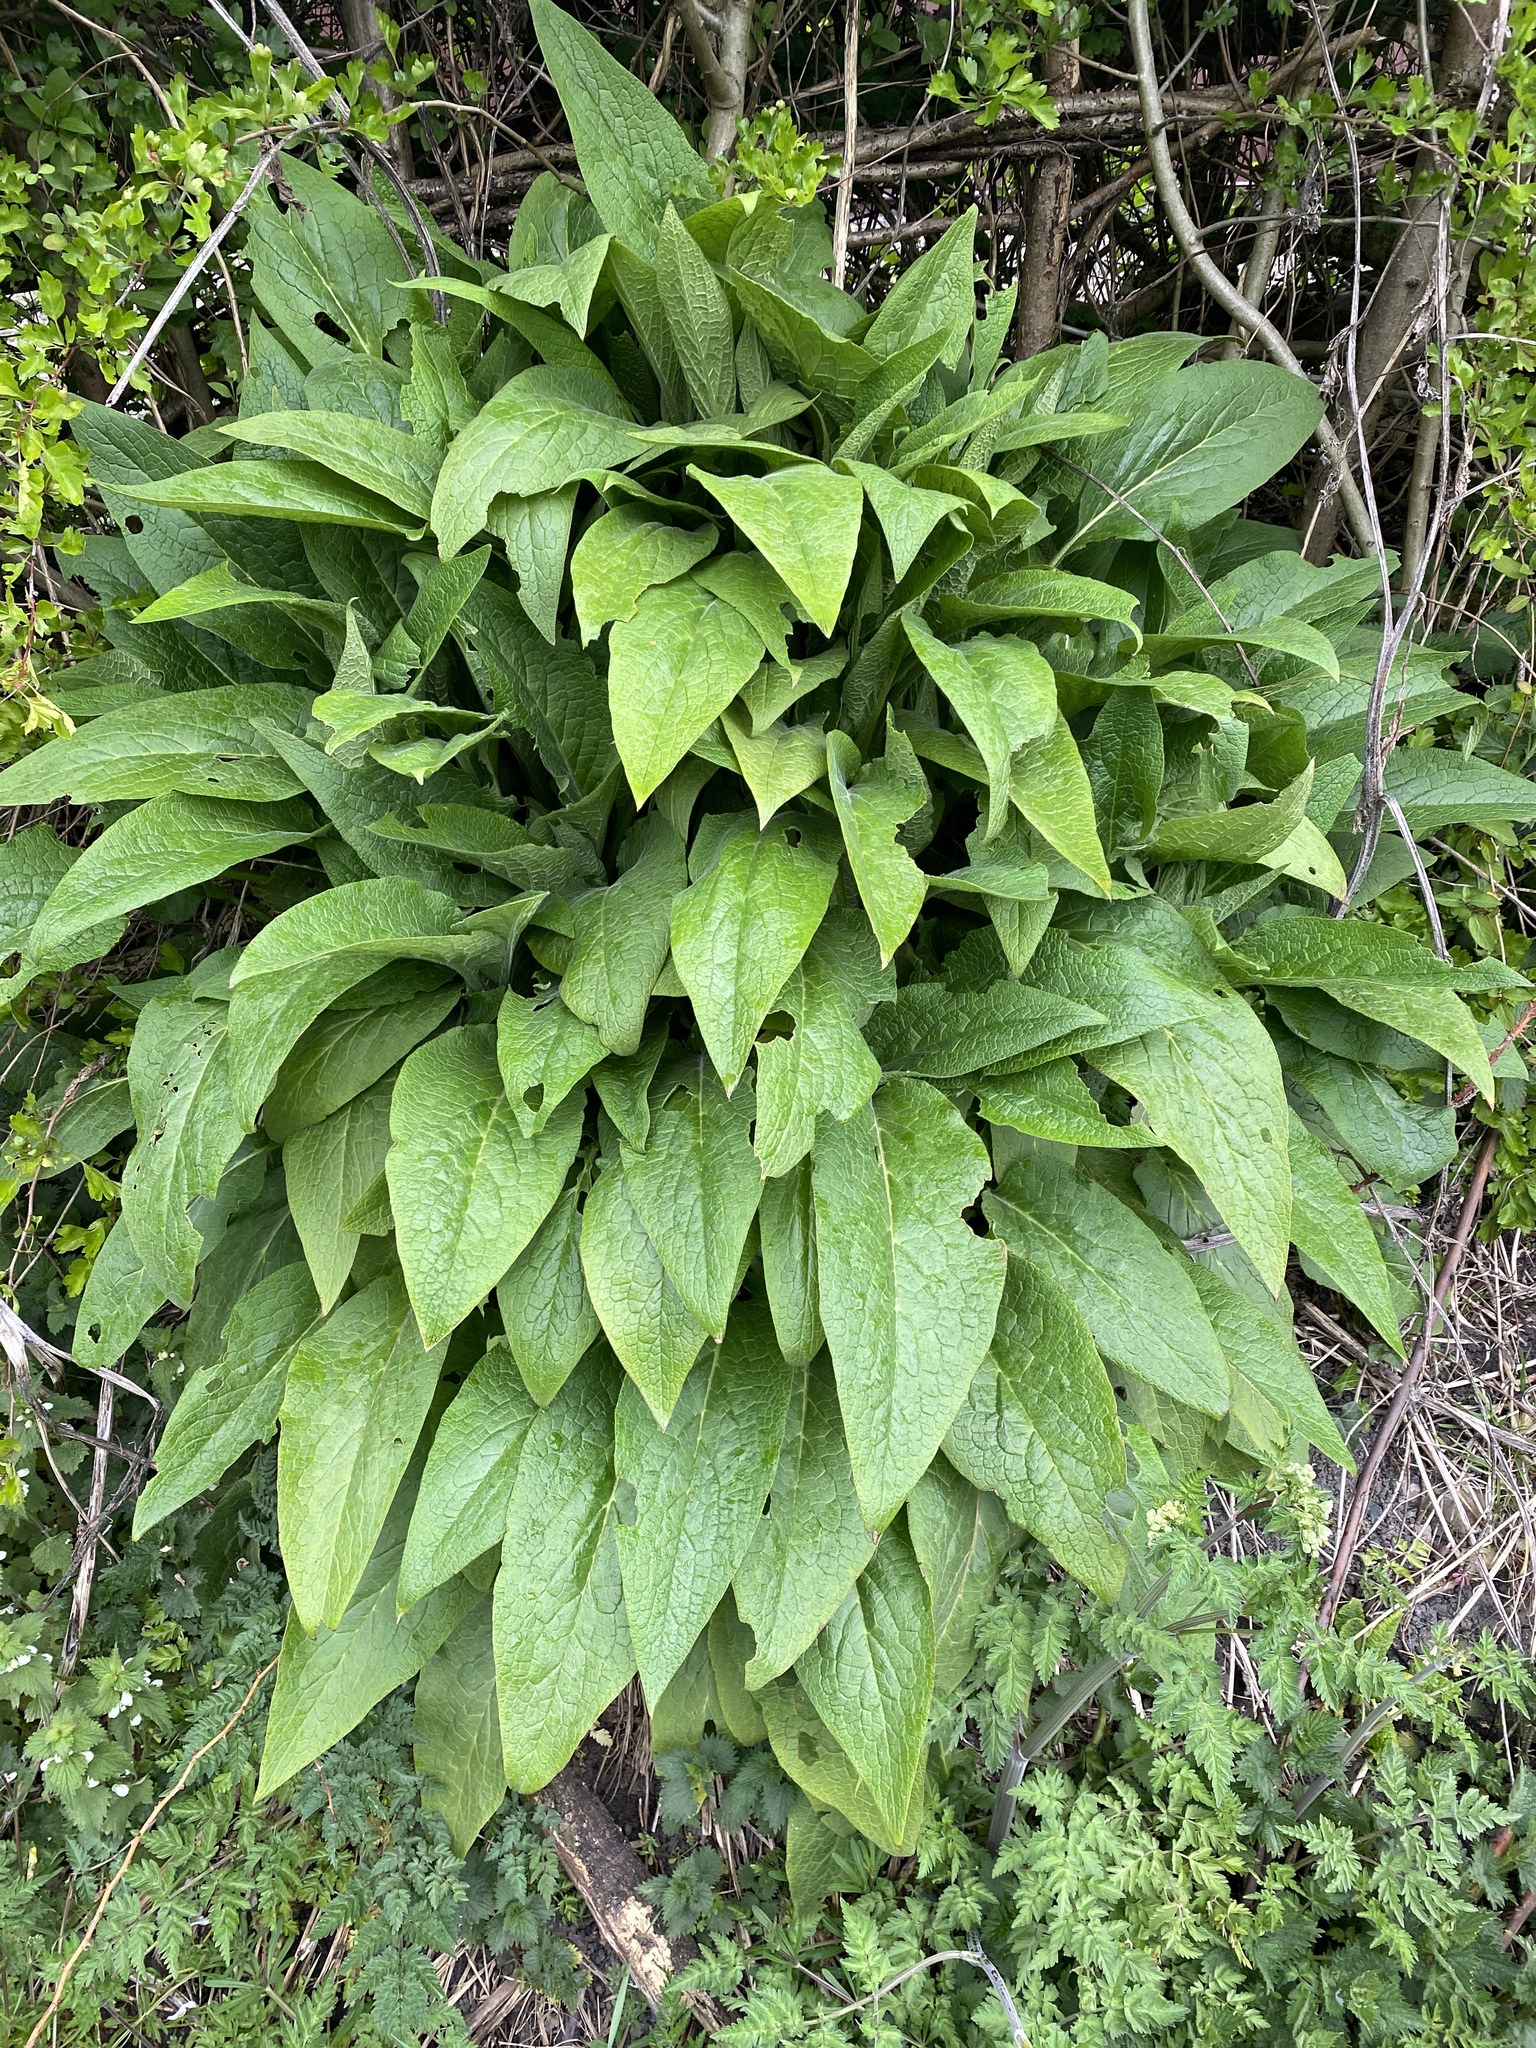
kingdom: Plantae
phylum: Tracheophyta
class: Magnoliopsida
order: Boraginales
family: Boraginaceae
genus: Symphytum
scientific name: Symphytum officinale
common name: Common comfrey
